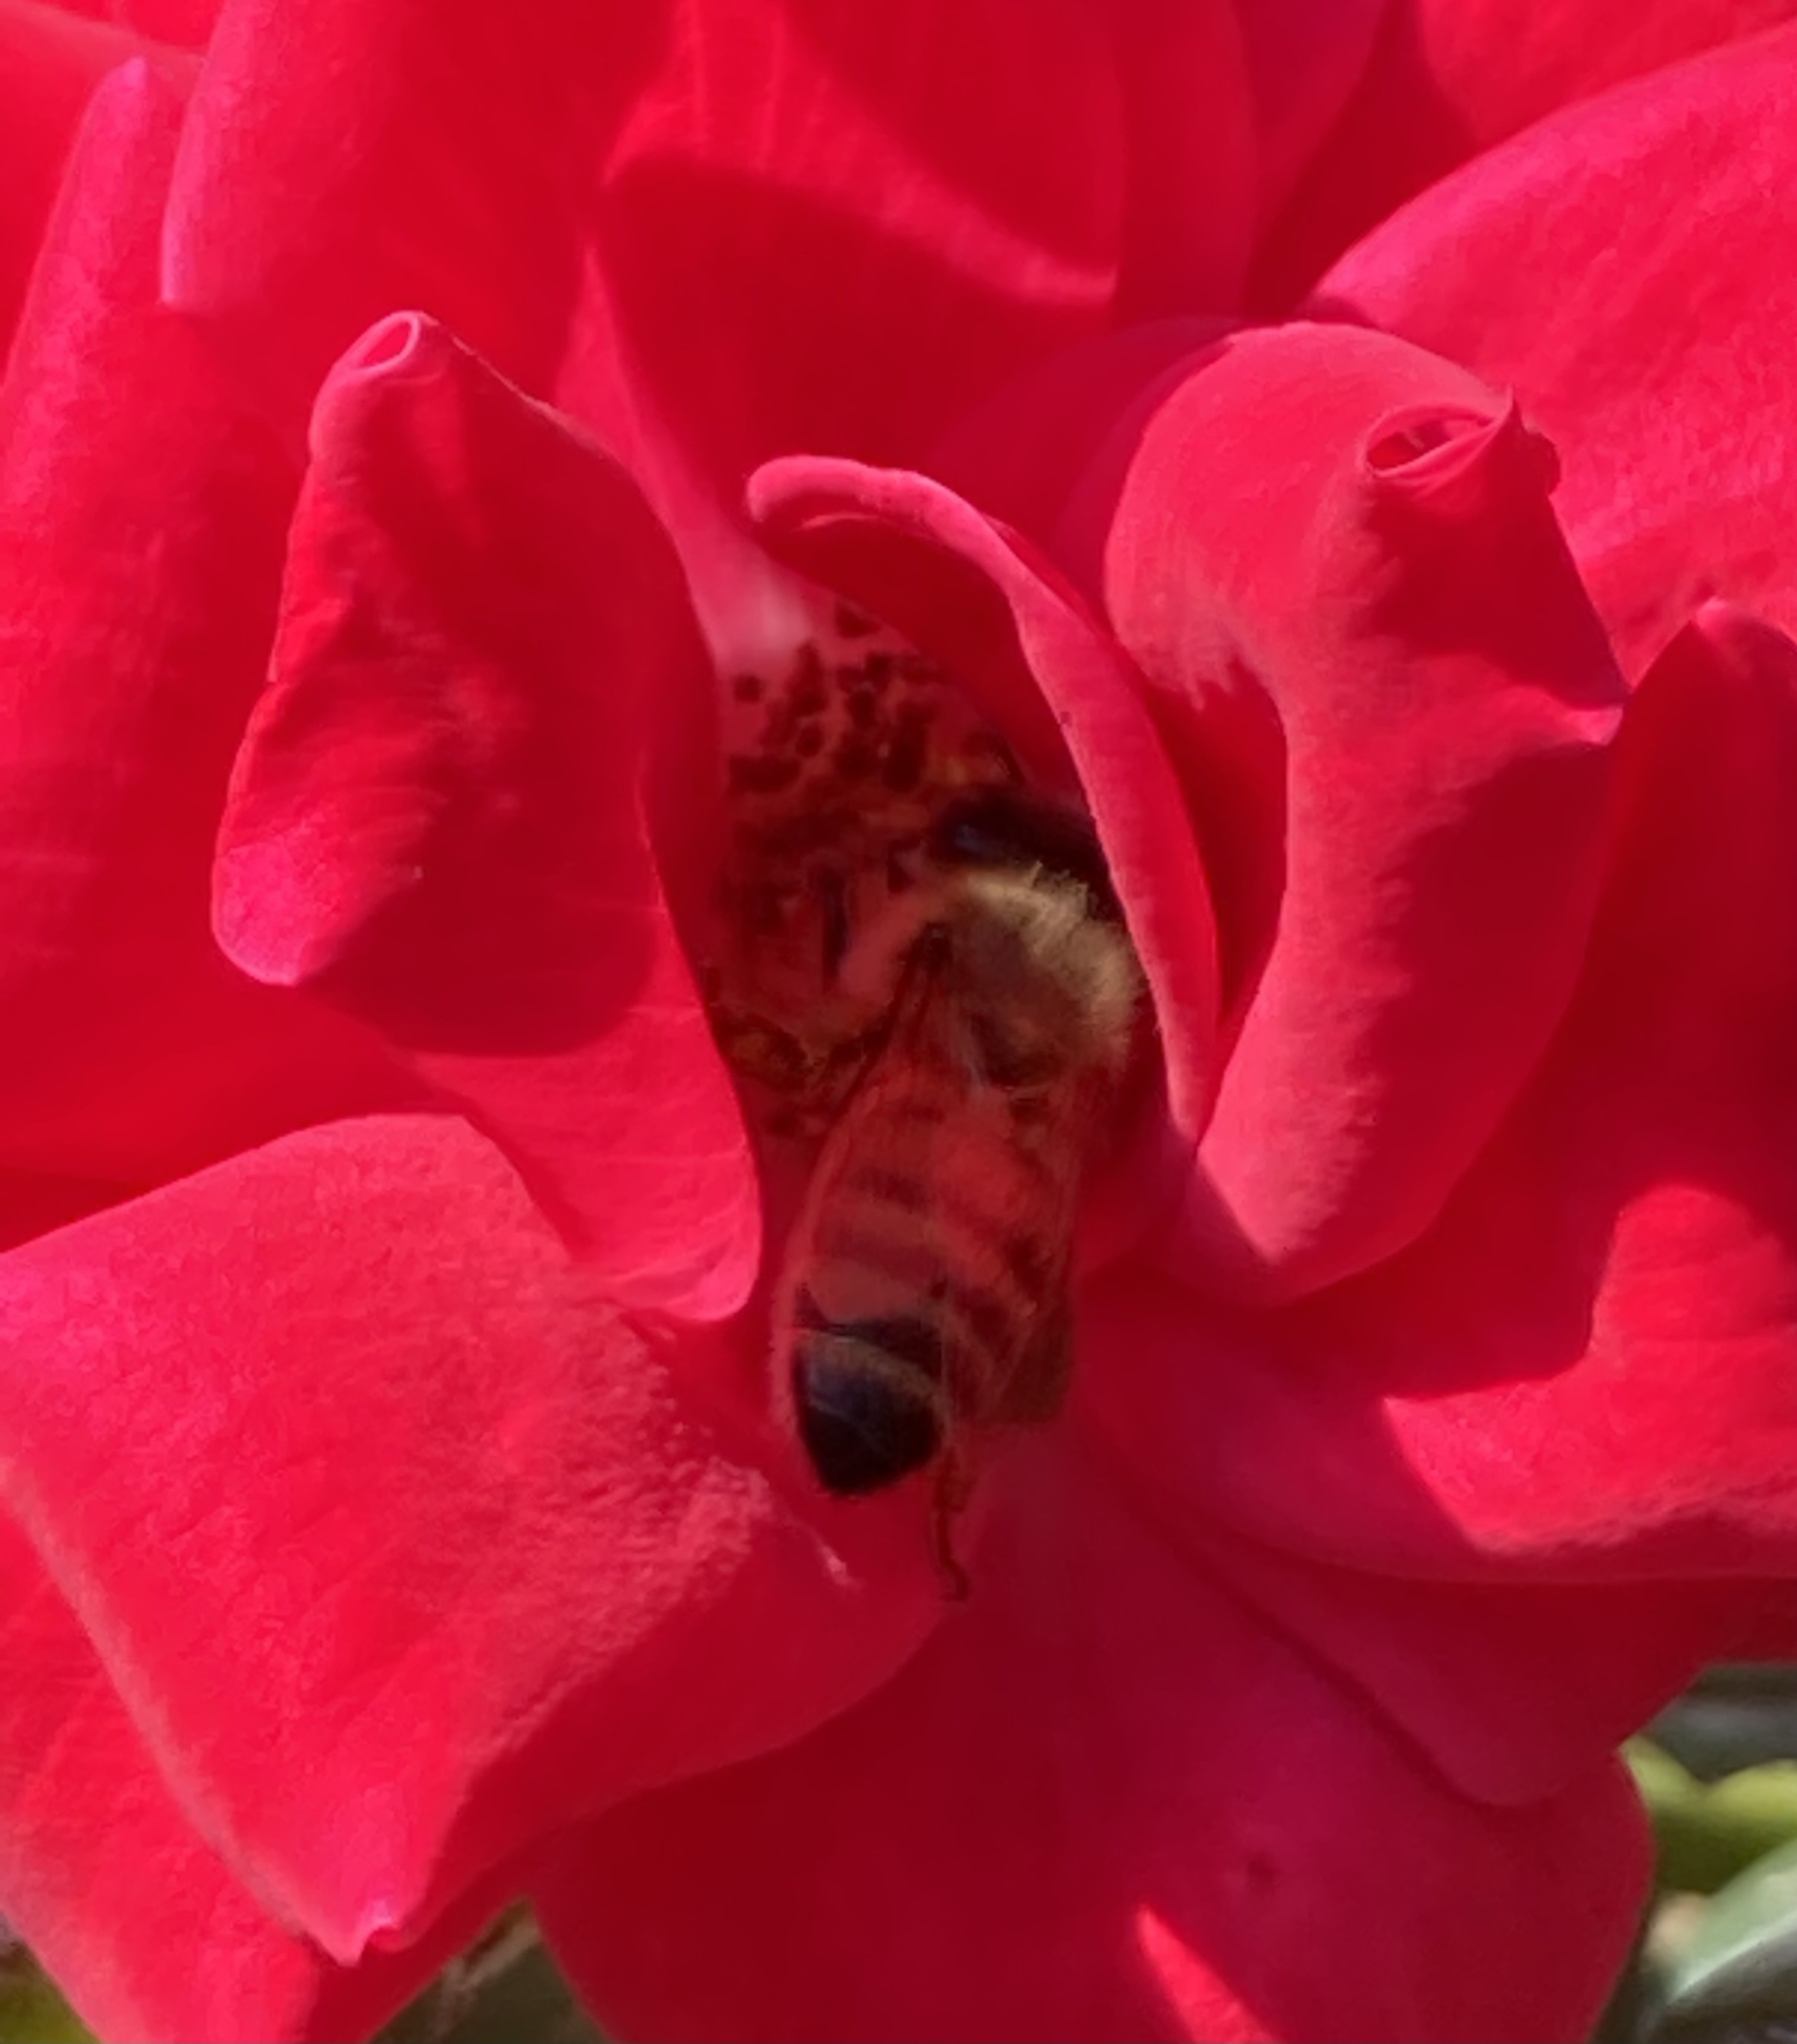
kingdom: Animalia
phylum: Arthropoda
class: Insecta
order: Hymenoptera
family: Apidae
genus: Apis
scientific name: Apis mellifera
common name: Honey bee
